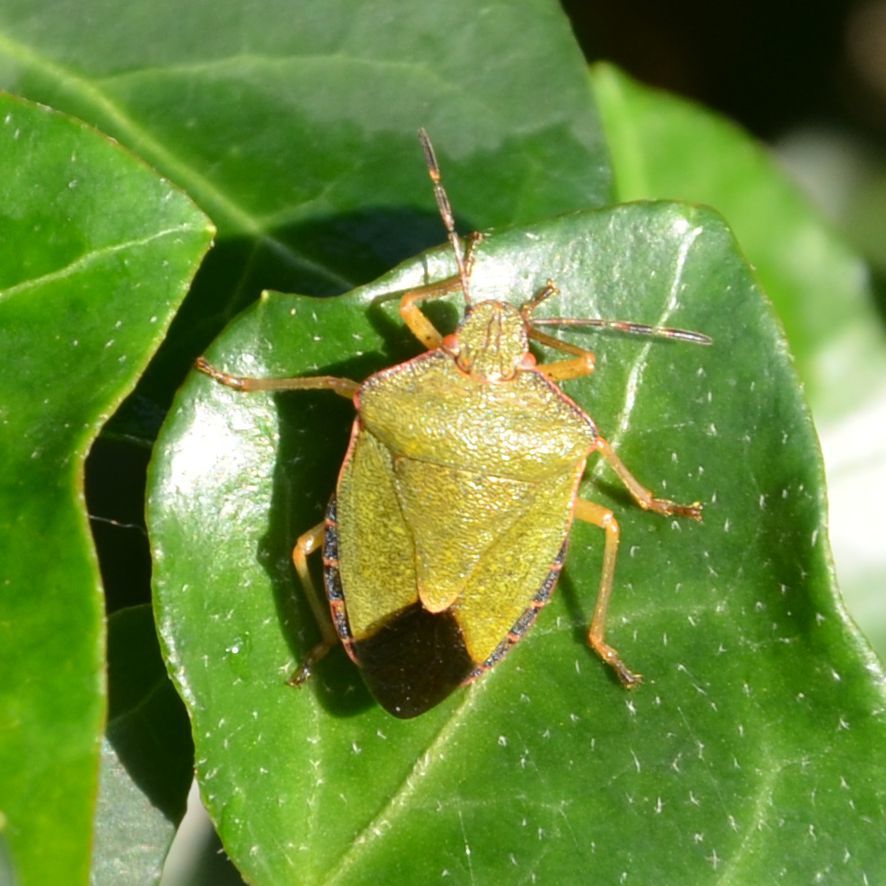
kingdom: Animalia
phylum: Arthropoda
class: Insecta
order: Hemiptera
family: Pentatomidae
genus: Palomena
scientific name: Palomena prasina
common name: Green shieldbug
